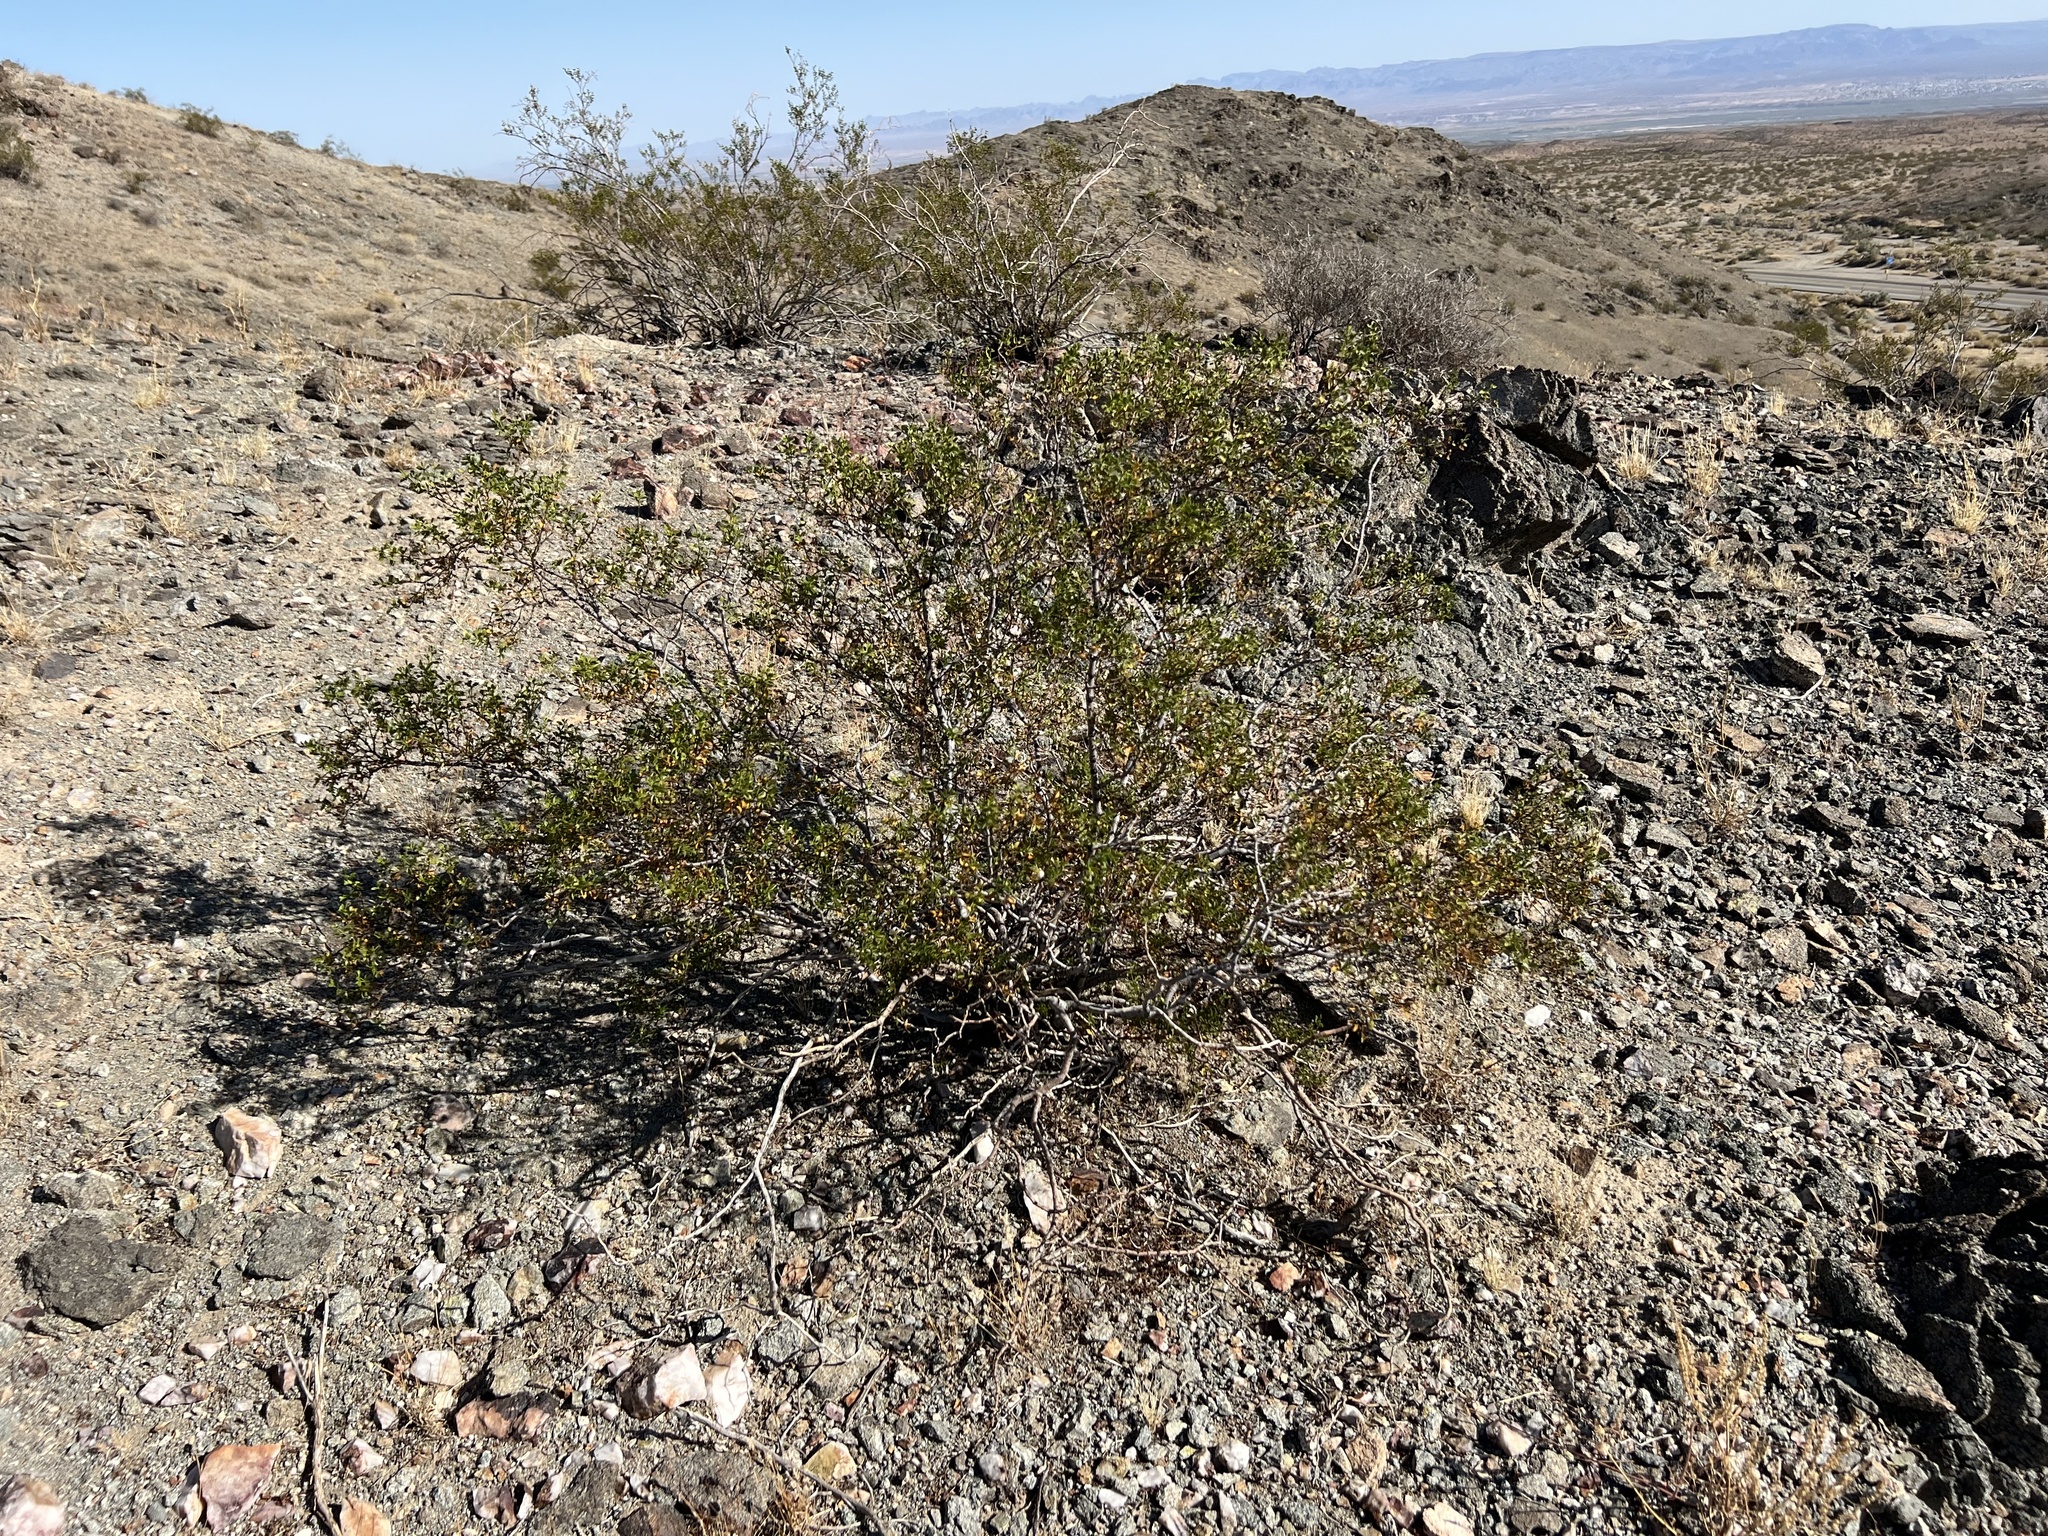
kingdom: Plantae
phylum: Tracheophyta
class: Magnoliopsida
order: Zygophyllales
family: Zygophyllaceae
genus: Larrea
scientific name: Larrea tridentata
